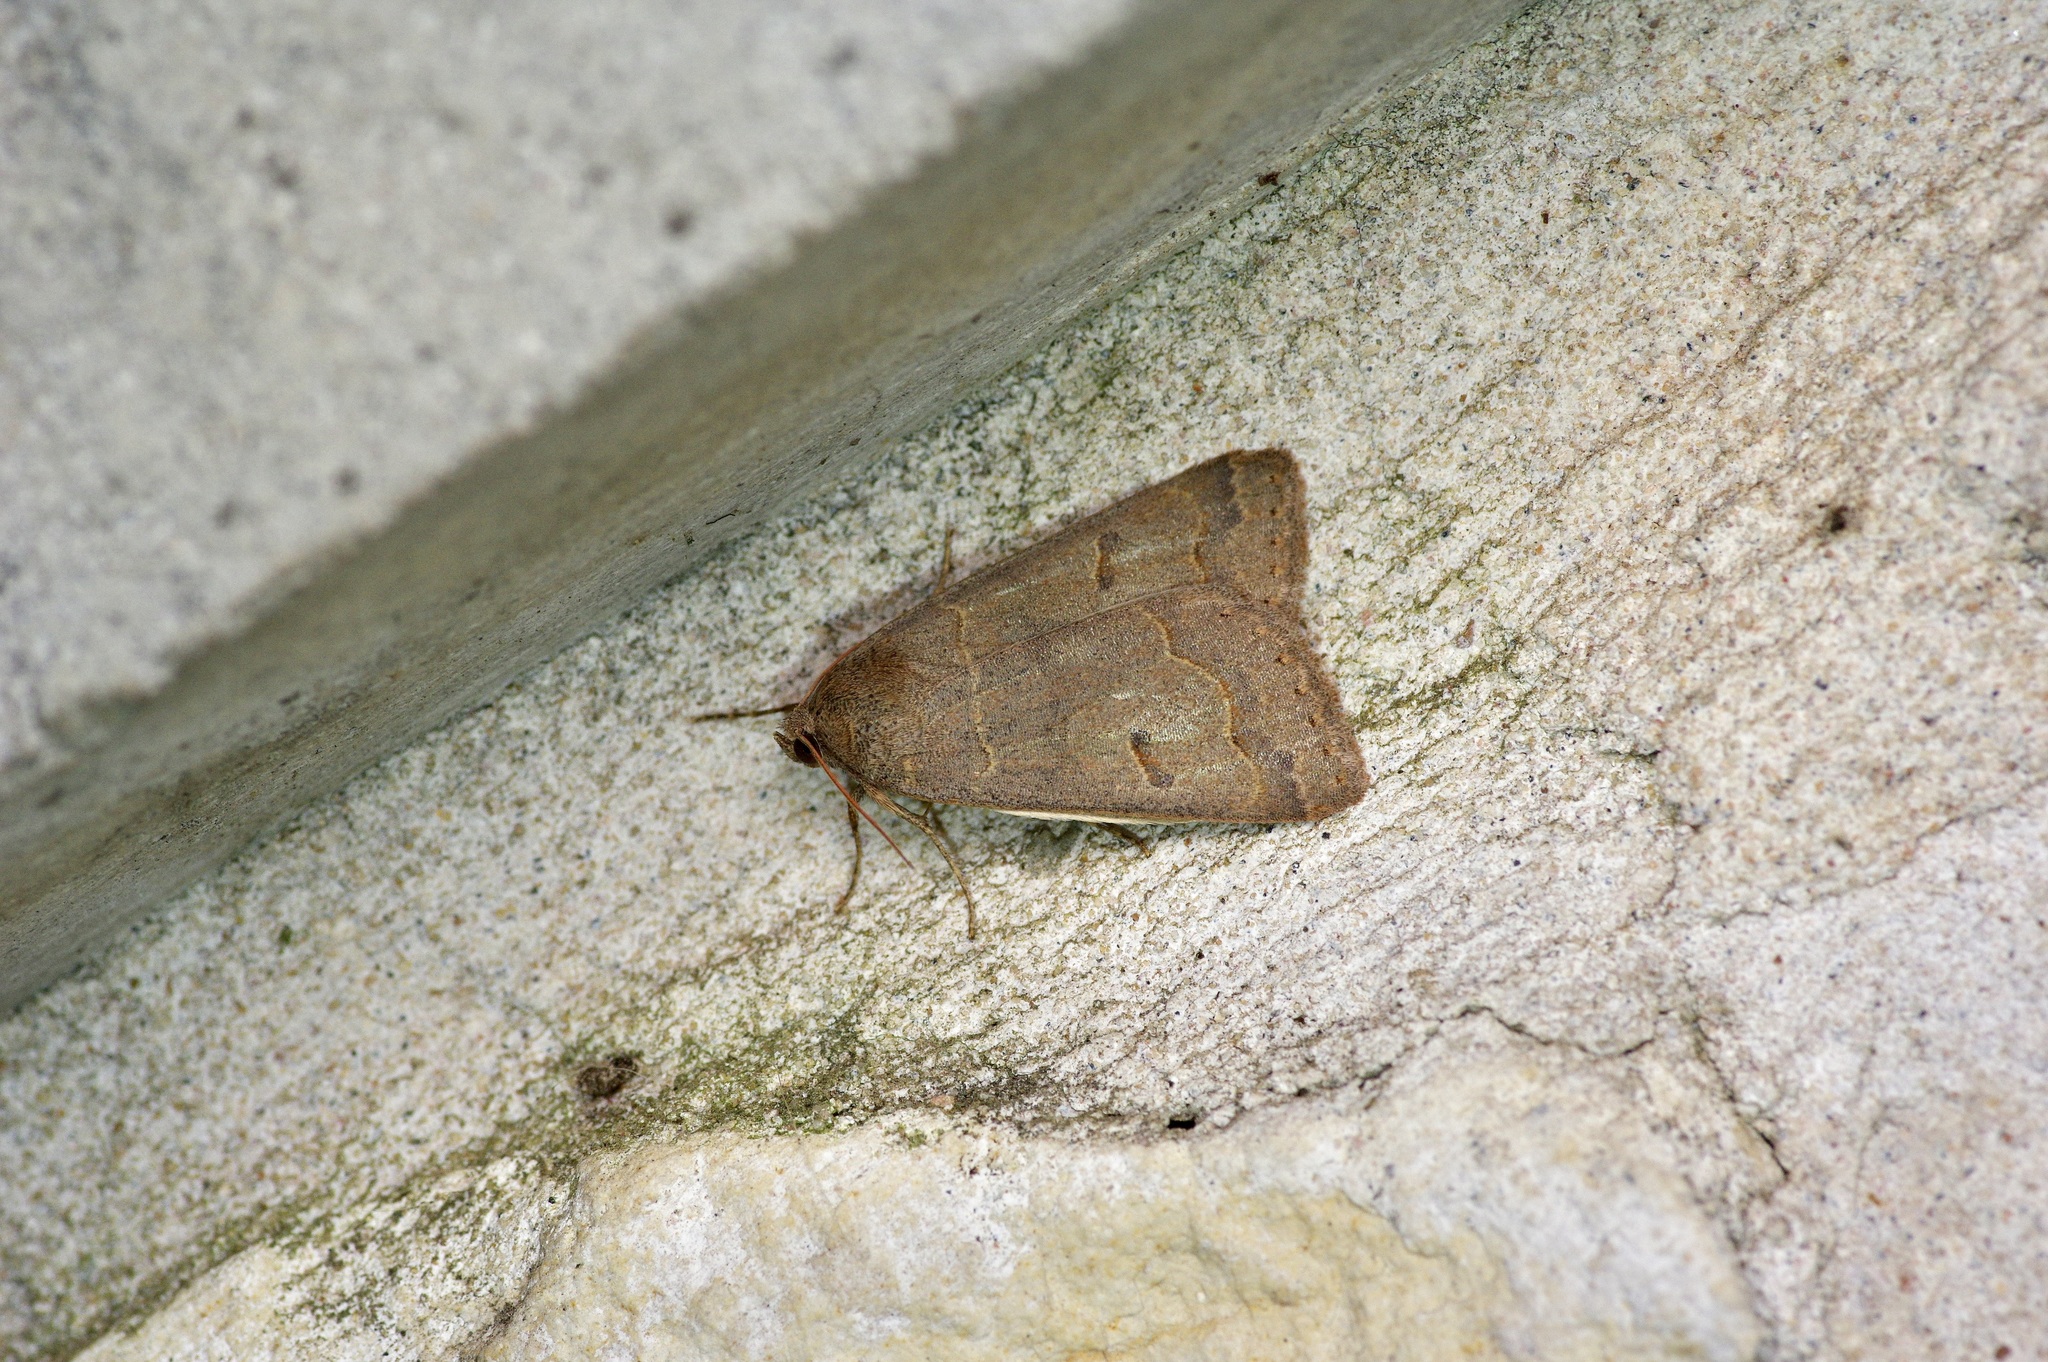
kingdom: Animalia
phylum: Arthropoda
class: Insecta
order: Lepidoptera
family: Erebidae
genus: Phoberia
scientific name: Phoberia atomaris
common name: Common oak moth
